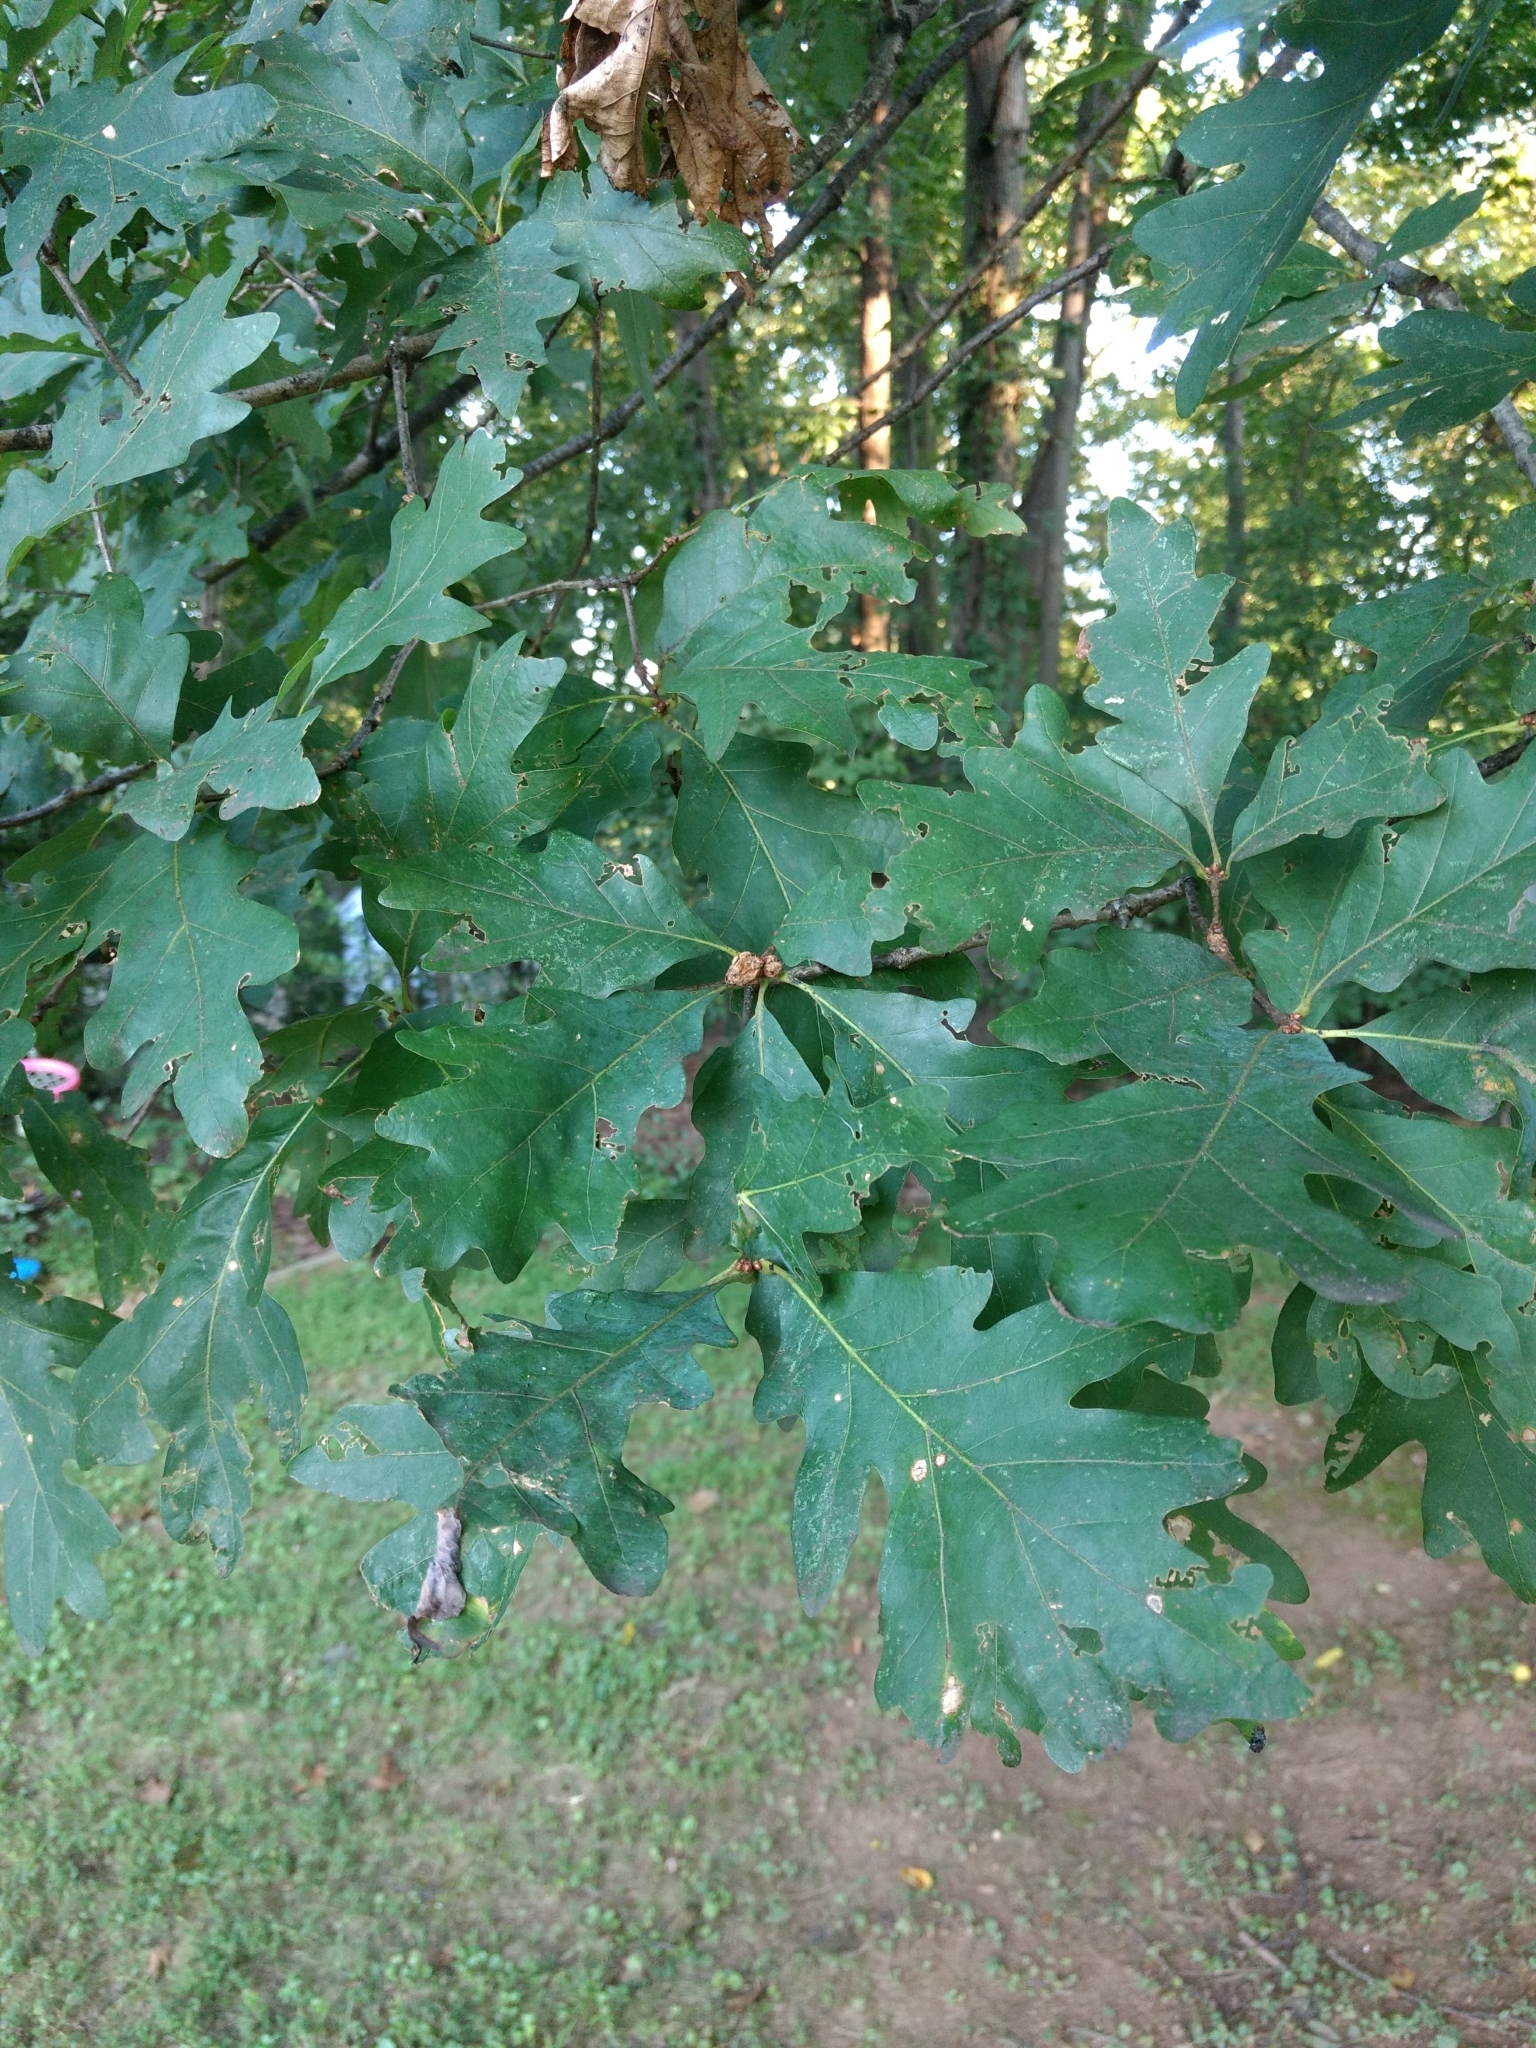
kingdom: Plantae
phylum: Tracheophyta
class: Magnoliopsida
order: Fagales
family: Fagaceae
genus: Quercus
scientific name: Quercus alba
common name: White oak
